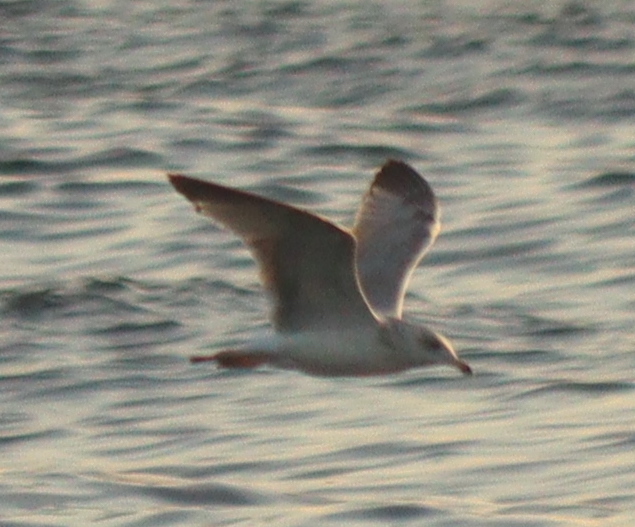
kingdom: Animalia
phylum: Chordata
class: Aves
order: Charadriiformes
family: Laridae
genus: Larus
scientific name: Larus argentatus
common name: Herring gull
